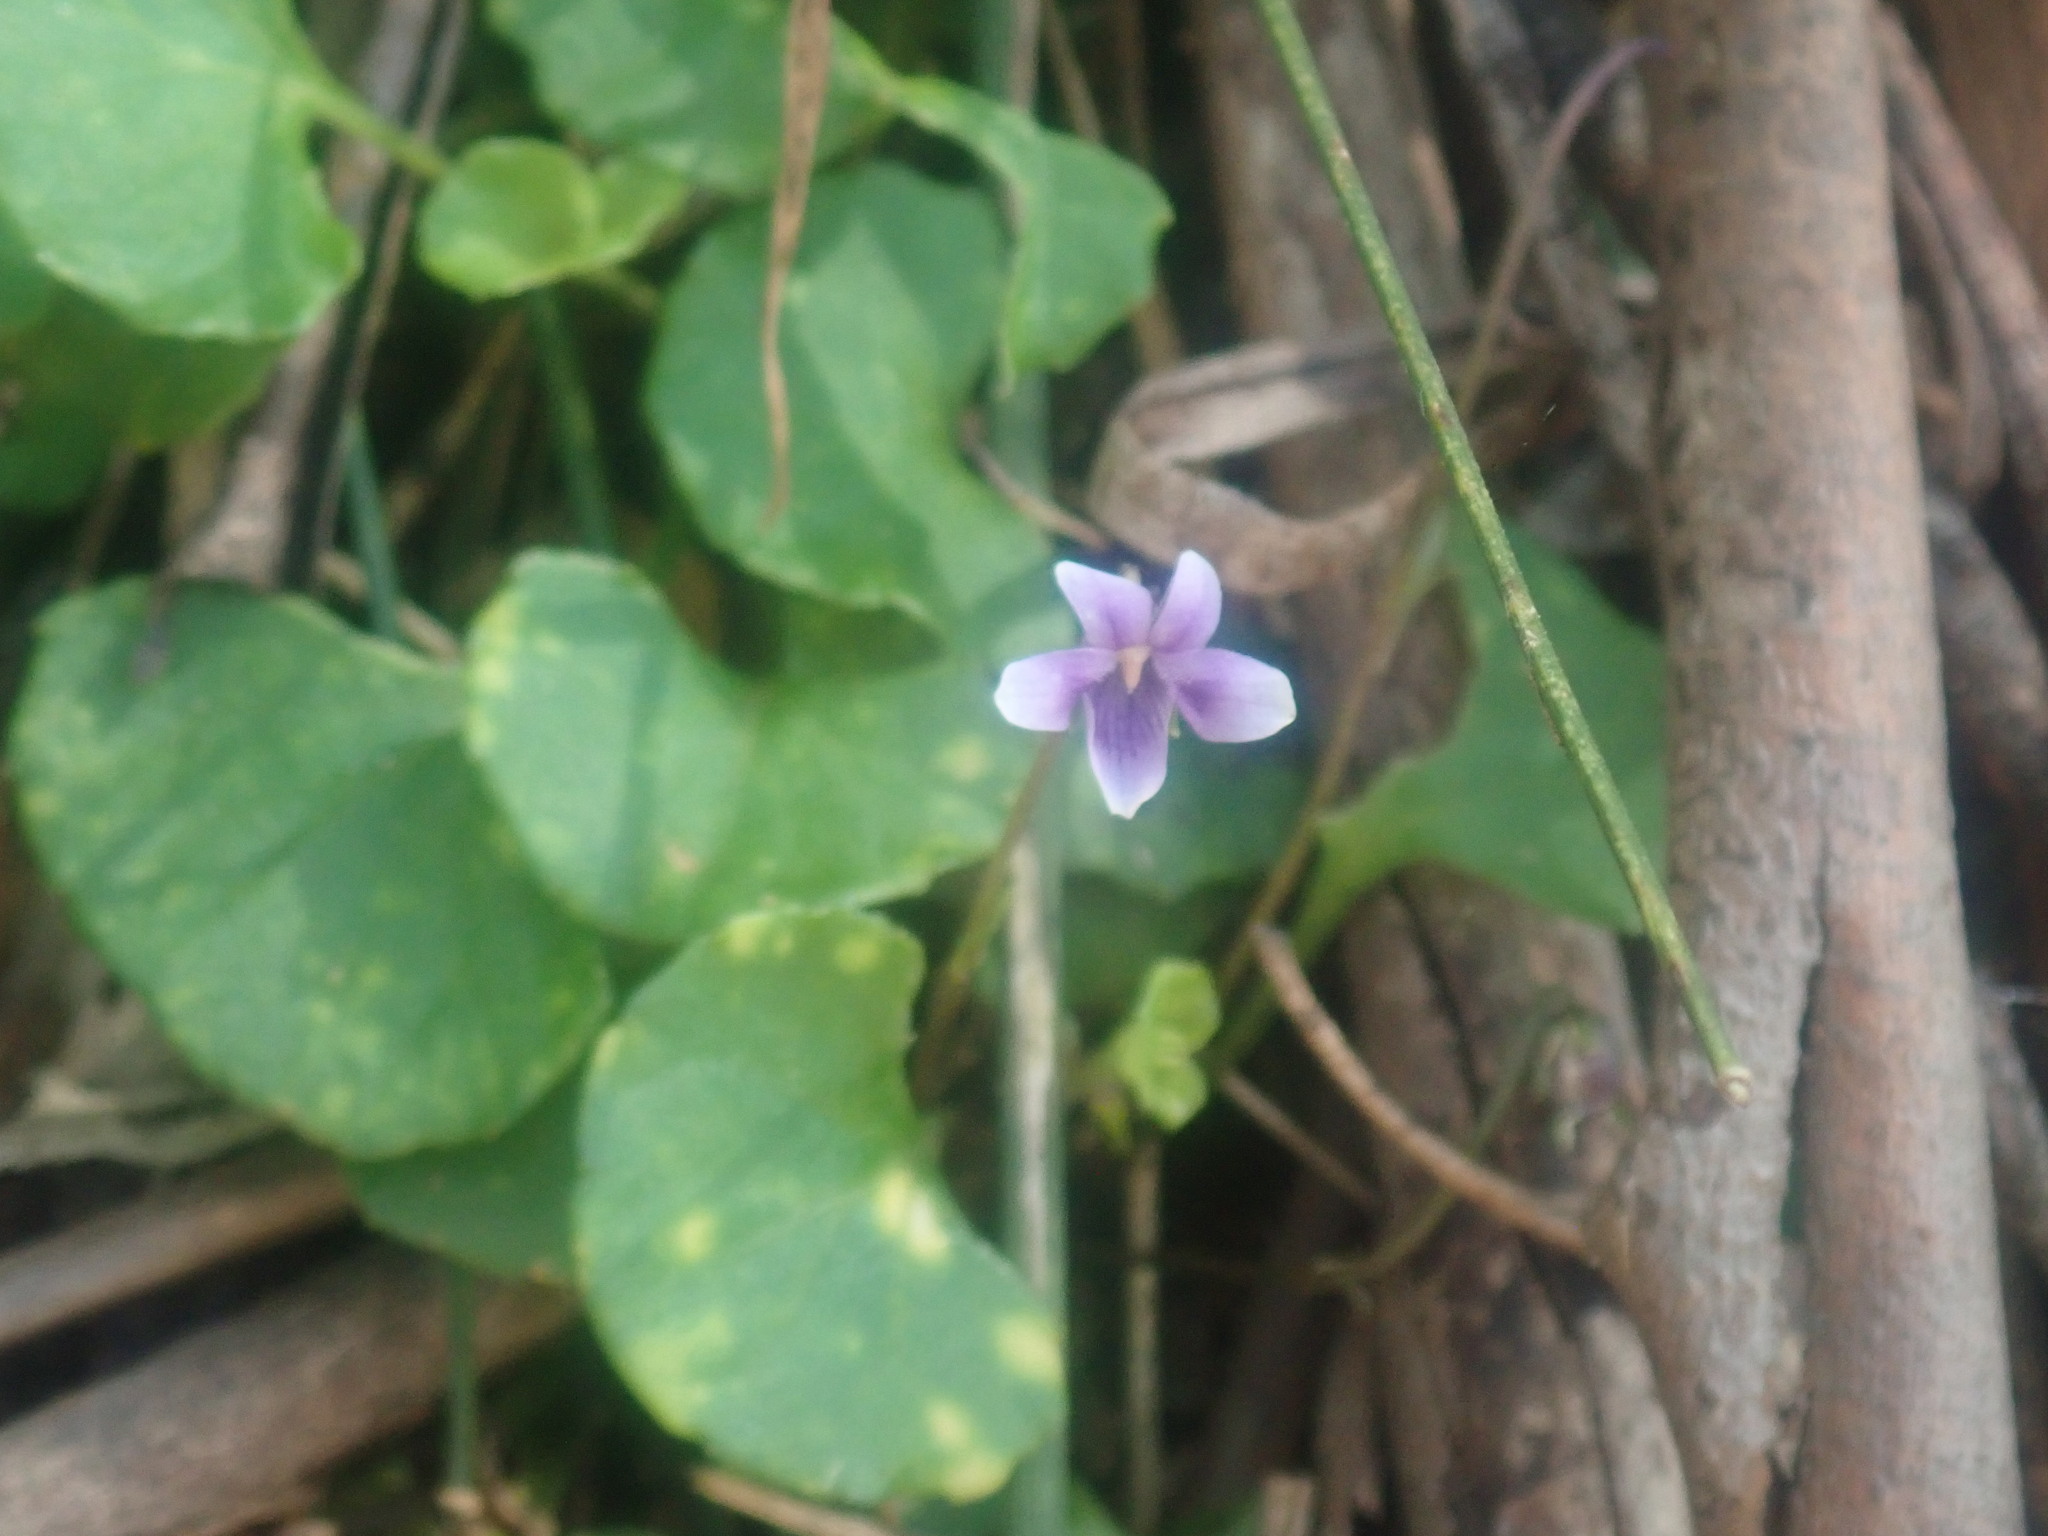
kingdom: Plantae
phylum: Tracheophyta
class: Magnoliopsida
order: Malpighiales
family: Violaceae
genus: Viola
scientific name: Viola hederacea
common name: Australian violet
